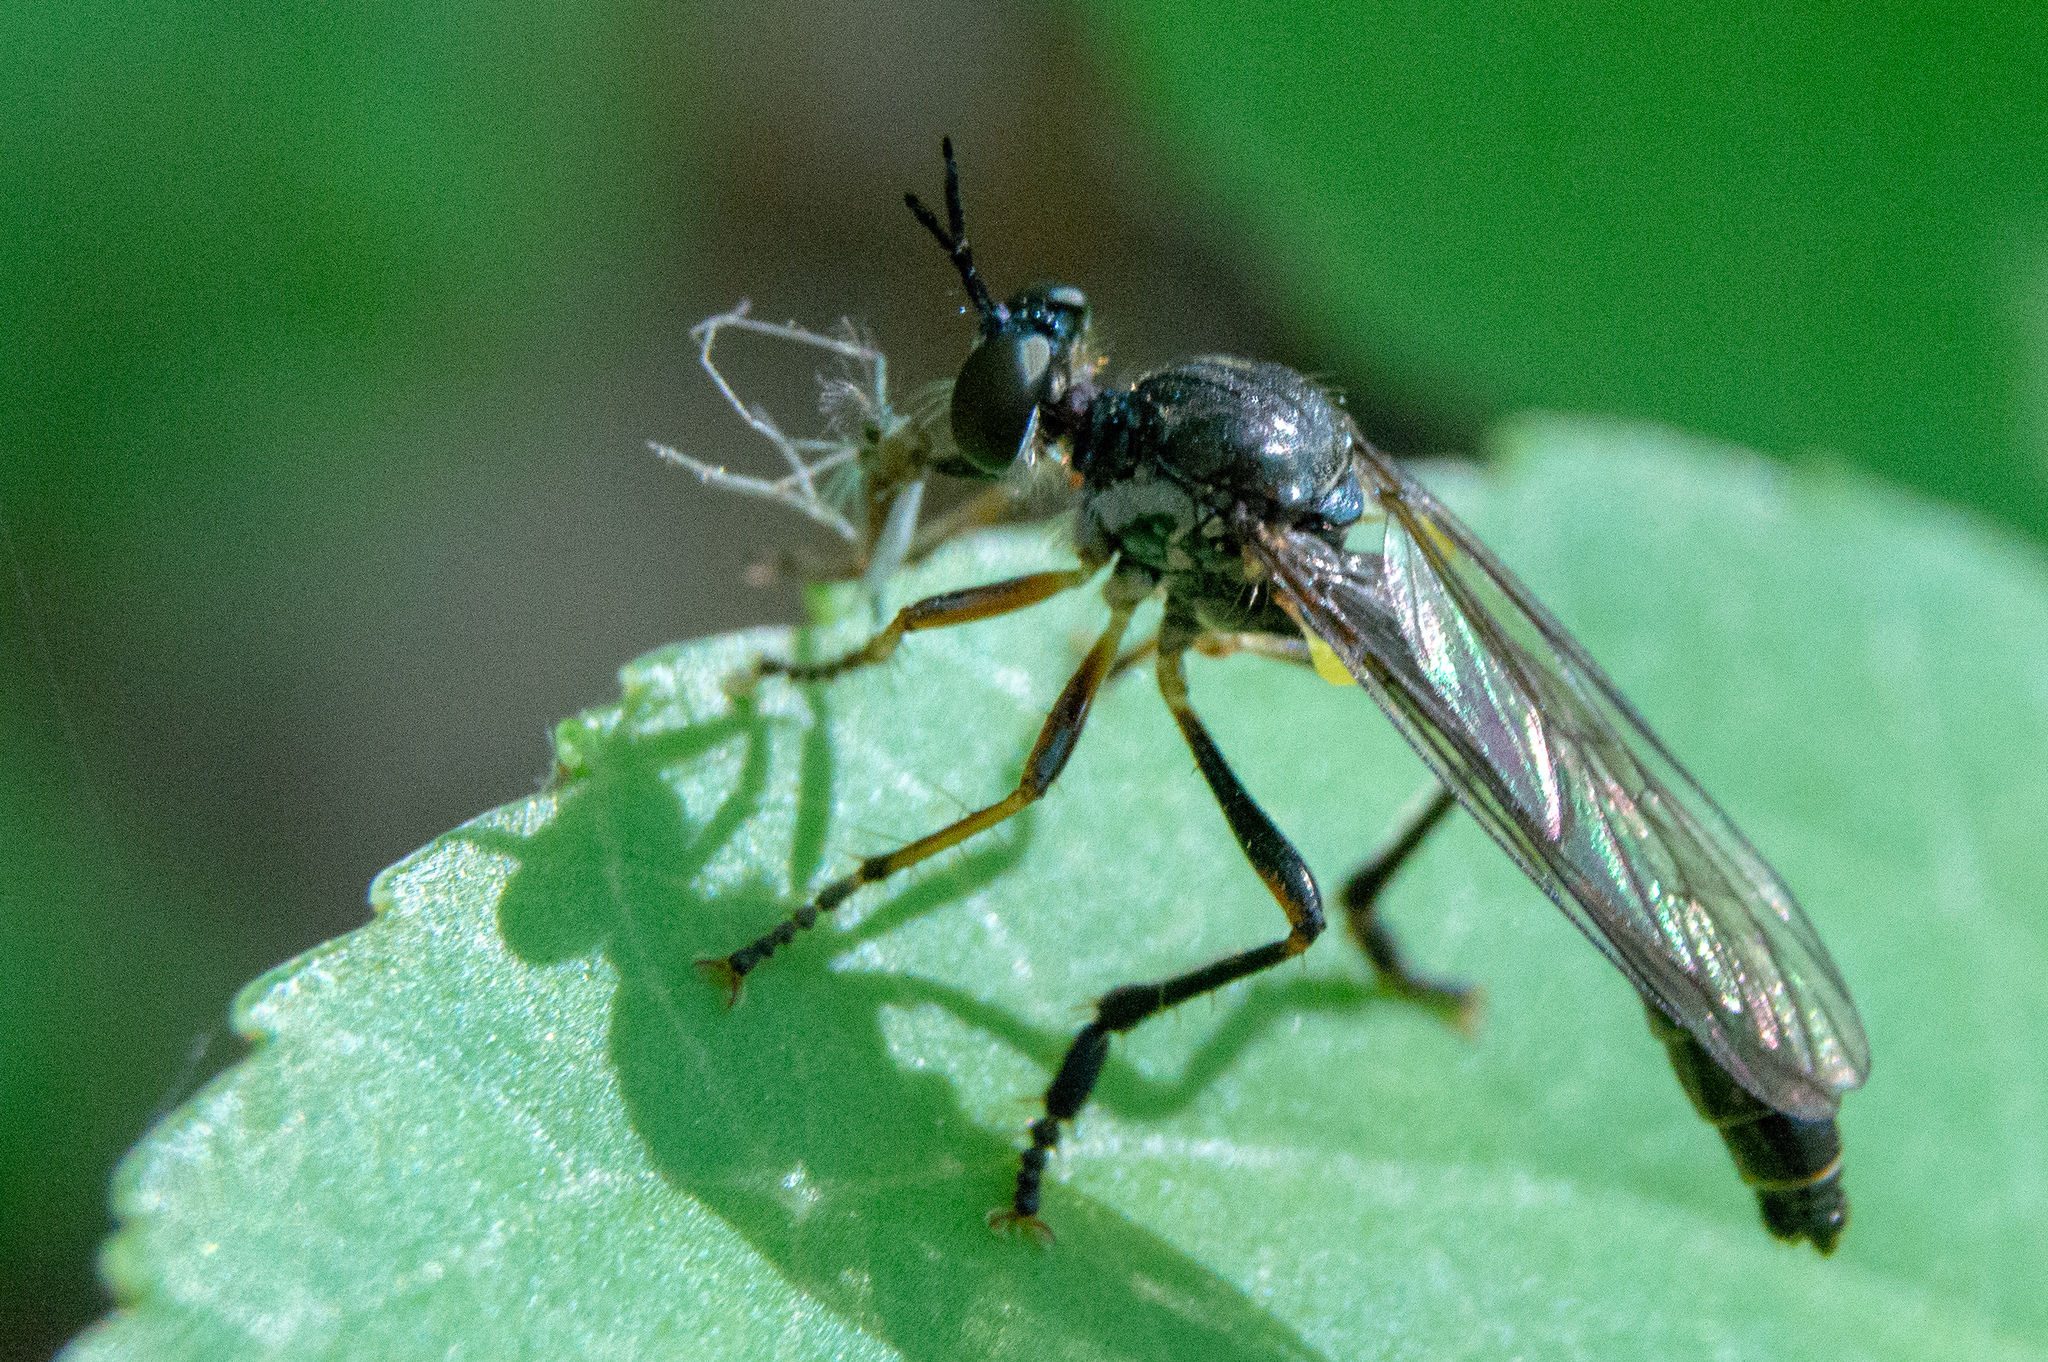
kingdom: Animalia
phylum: Arthropoda
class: Insecta
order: Diptera
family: Asilidae
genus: Dioctria
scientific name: Dioctria hyalipennis
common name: Stripe-legged robberfly
